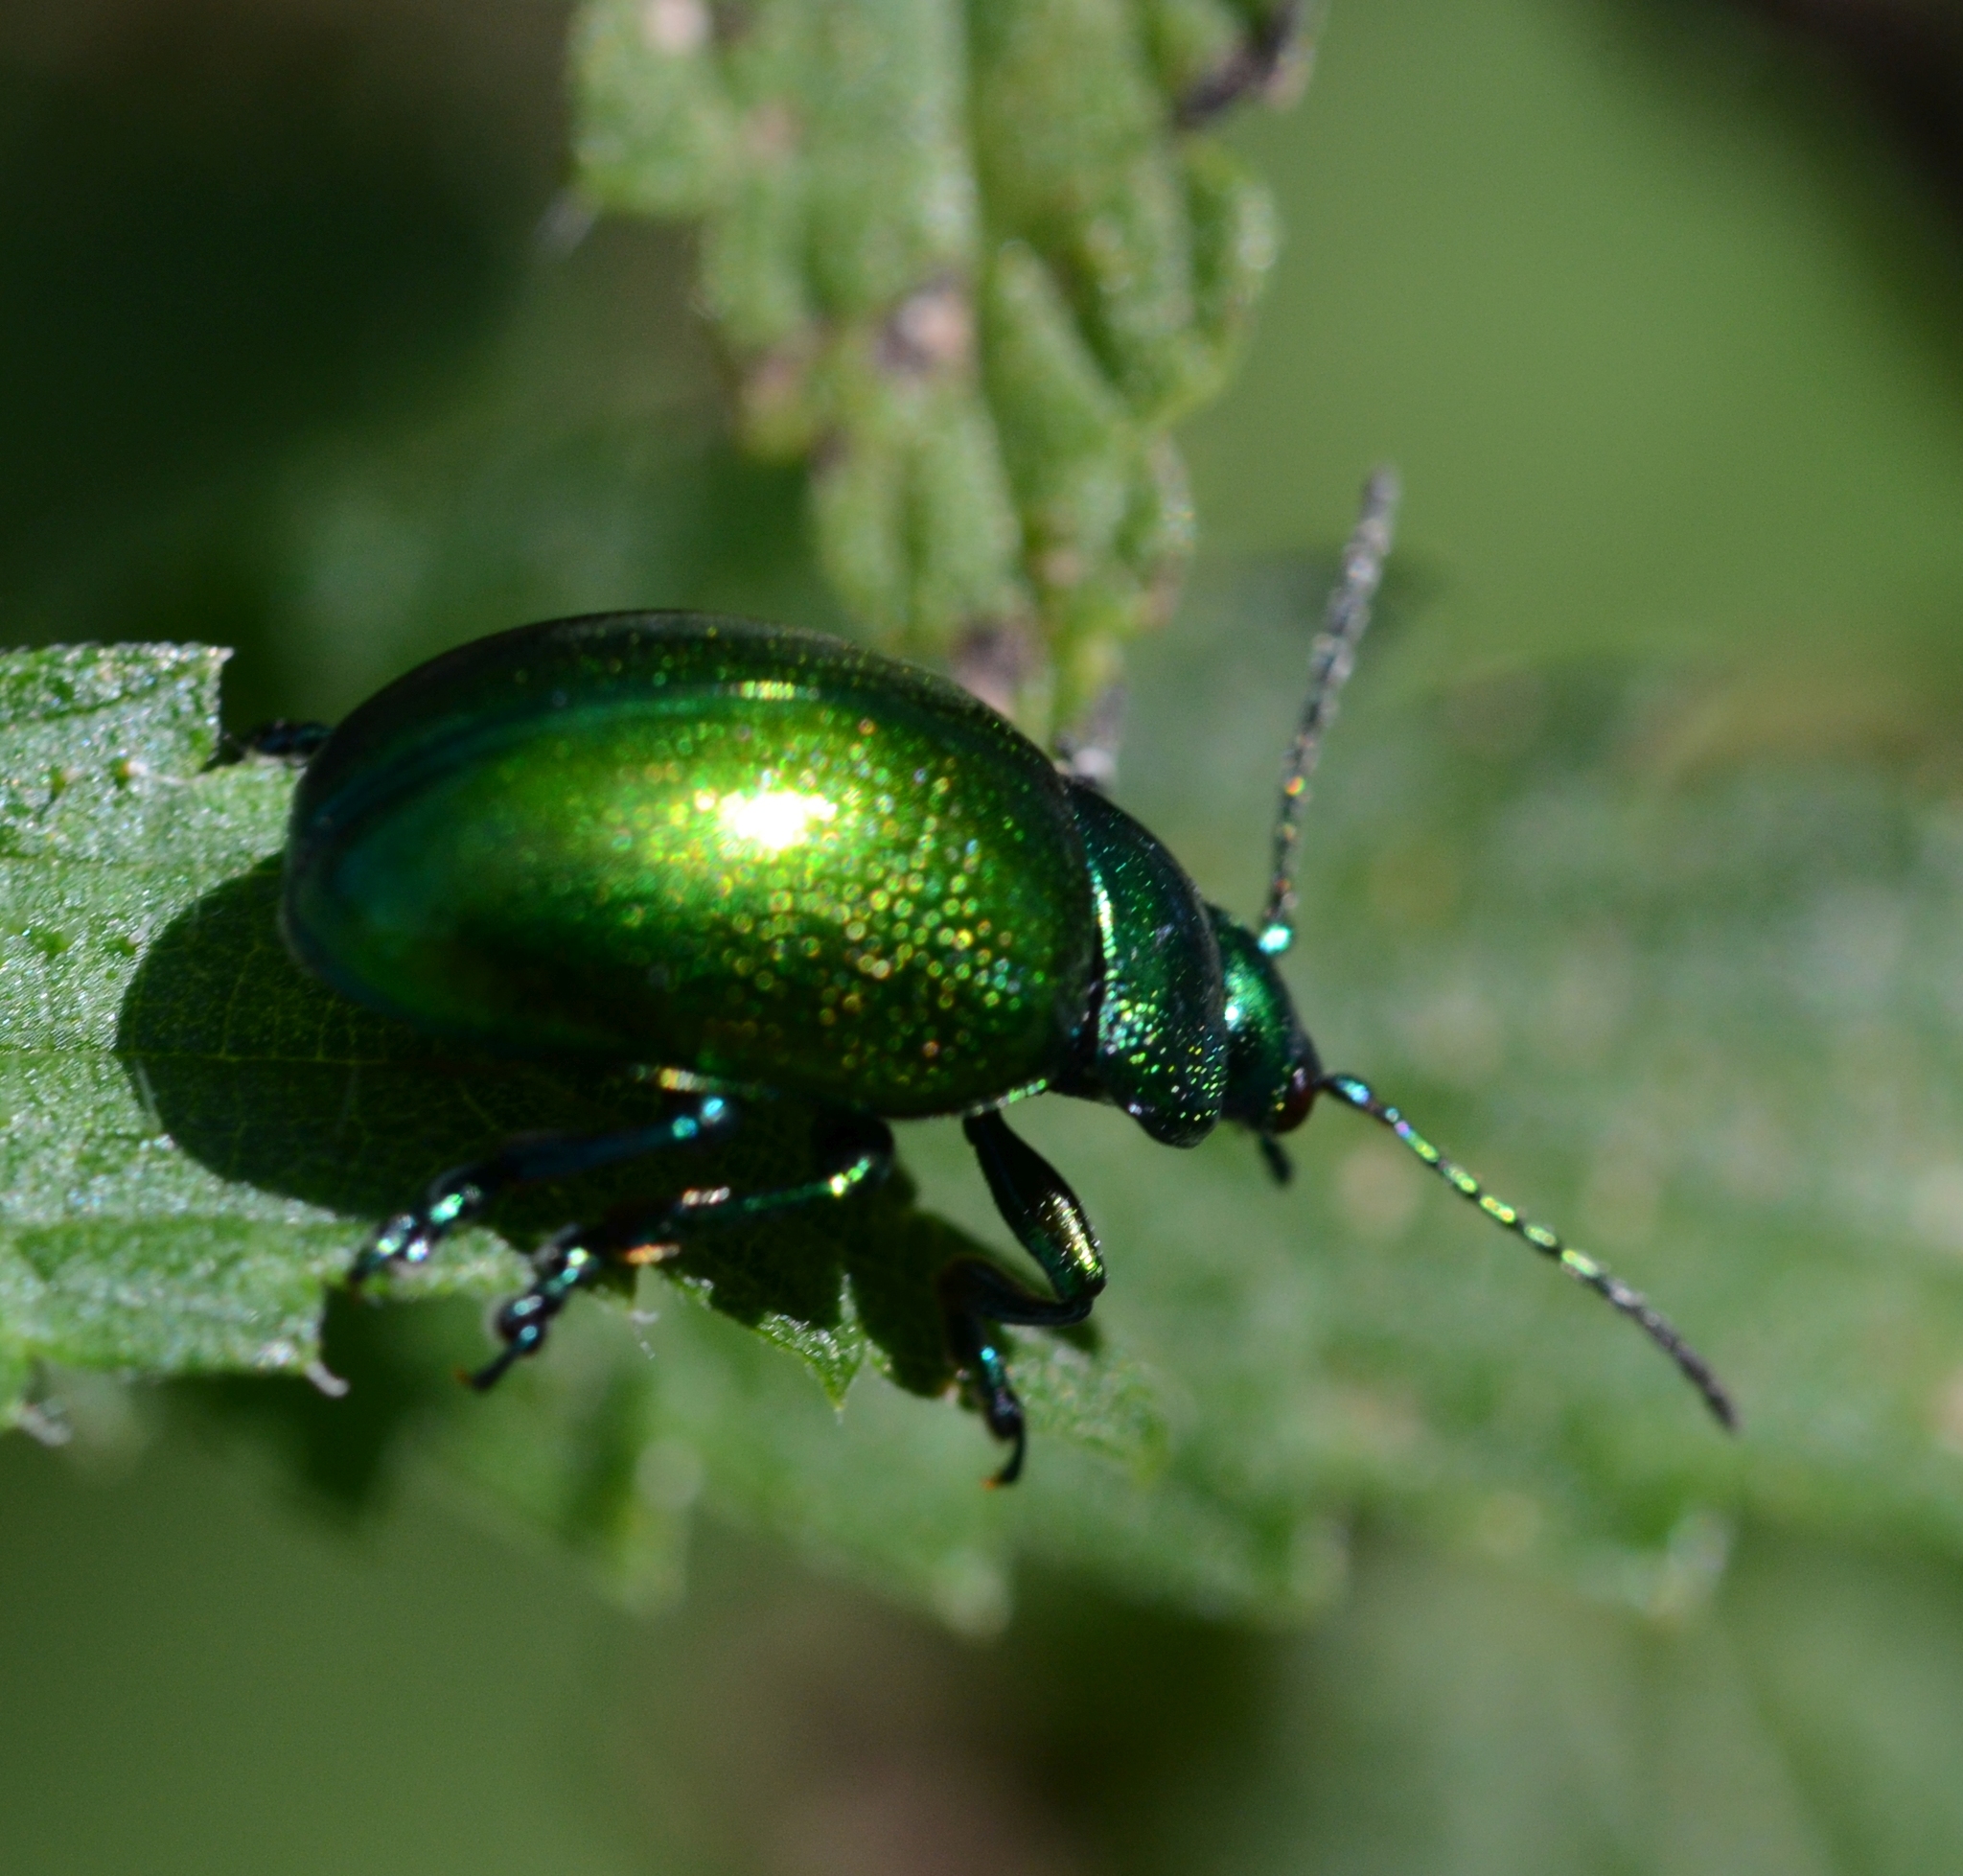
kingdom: Animalia
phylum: Arthropoda
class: Insecta
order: Coleoptera
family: Chrysomelidae
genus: Chrysolina
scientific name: Chrysolina herbacea
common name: Mint leaf beatle
